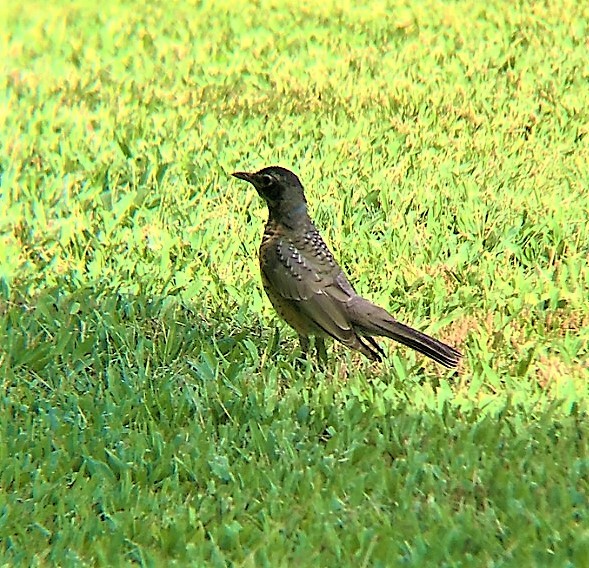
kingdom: Animalia
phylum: Chordata
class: Aves
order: Passeriformes
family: Turdidae
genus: Turdus
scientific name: Turdus migratorius
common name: American robin
